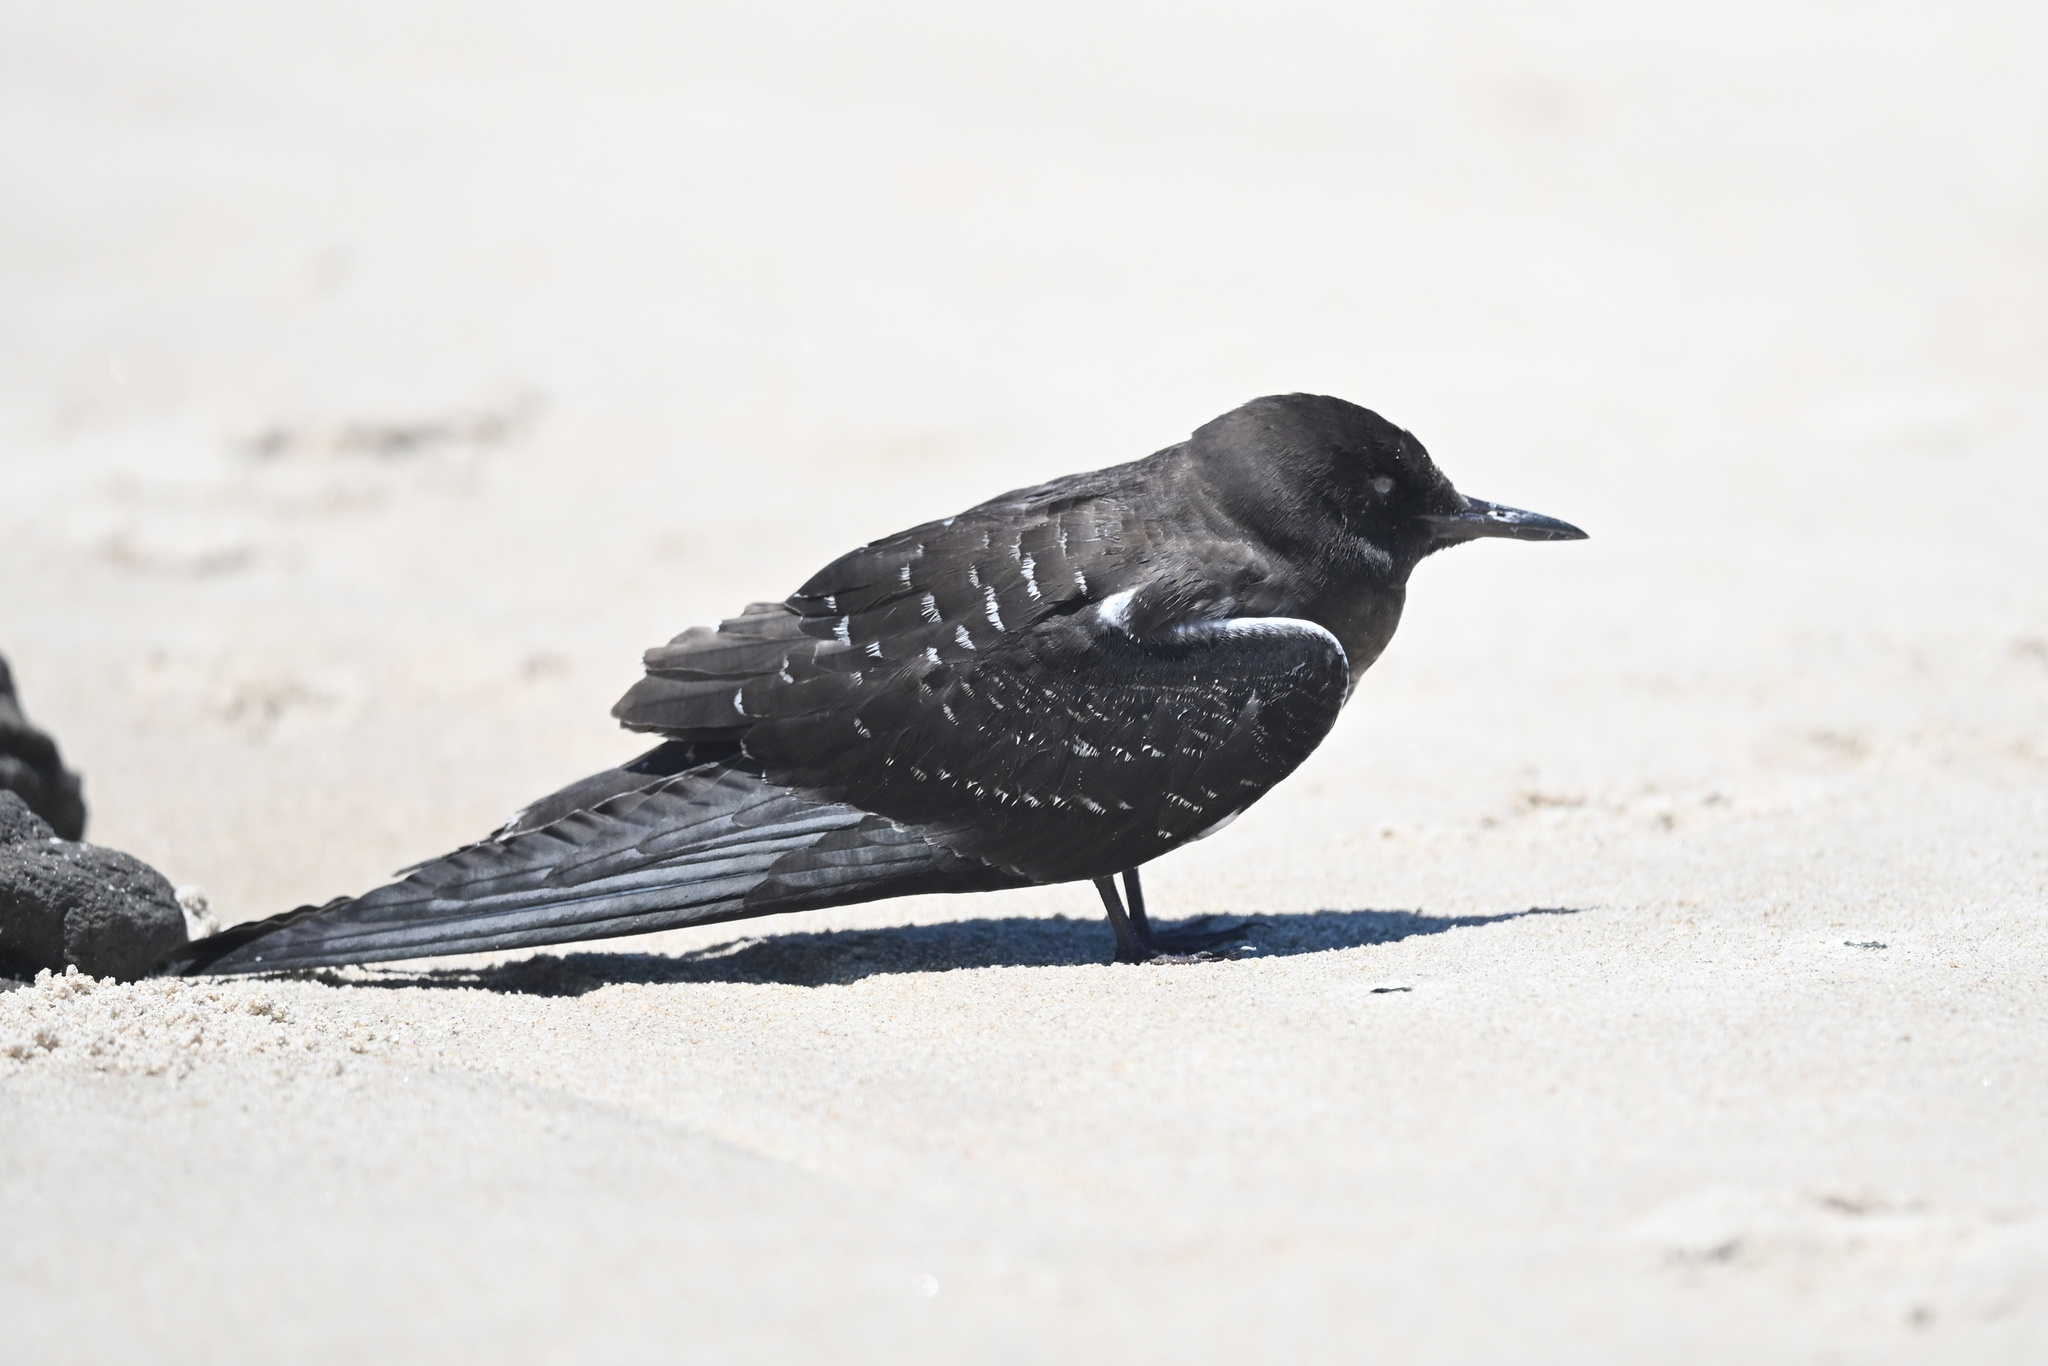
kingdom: Animalia
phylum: Chordata
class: Aves
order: Charadriiformes
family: Laridae
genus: Onychoprion
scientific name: Onychoprion fuscatus
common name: Sooty tern
